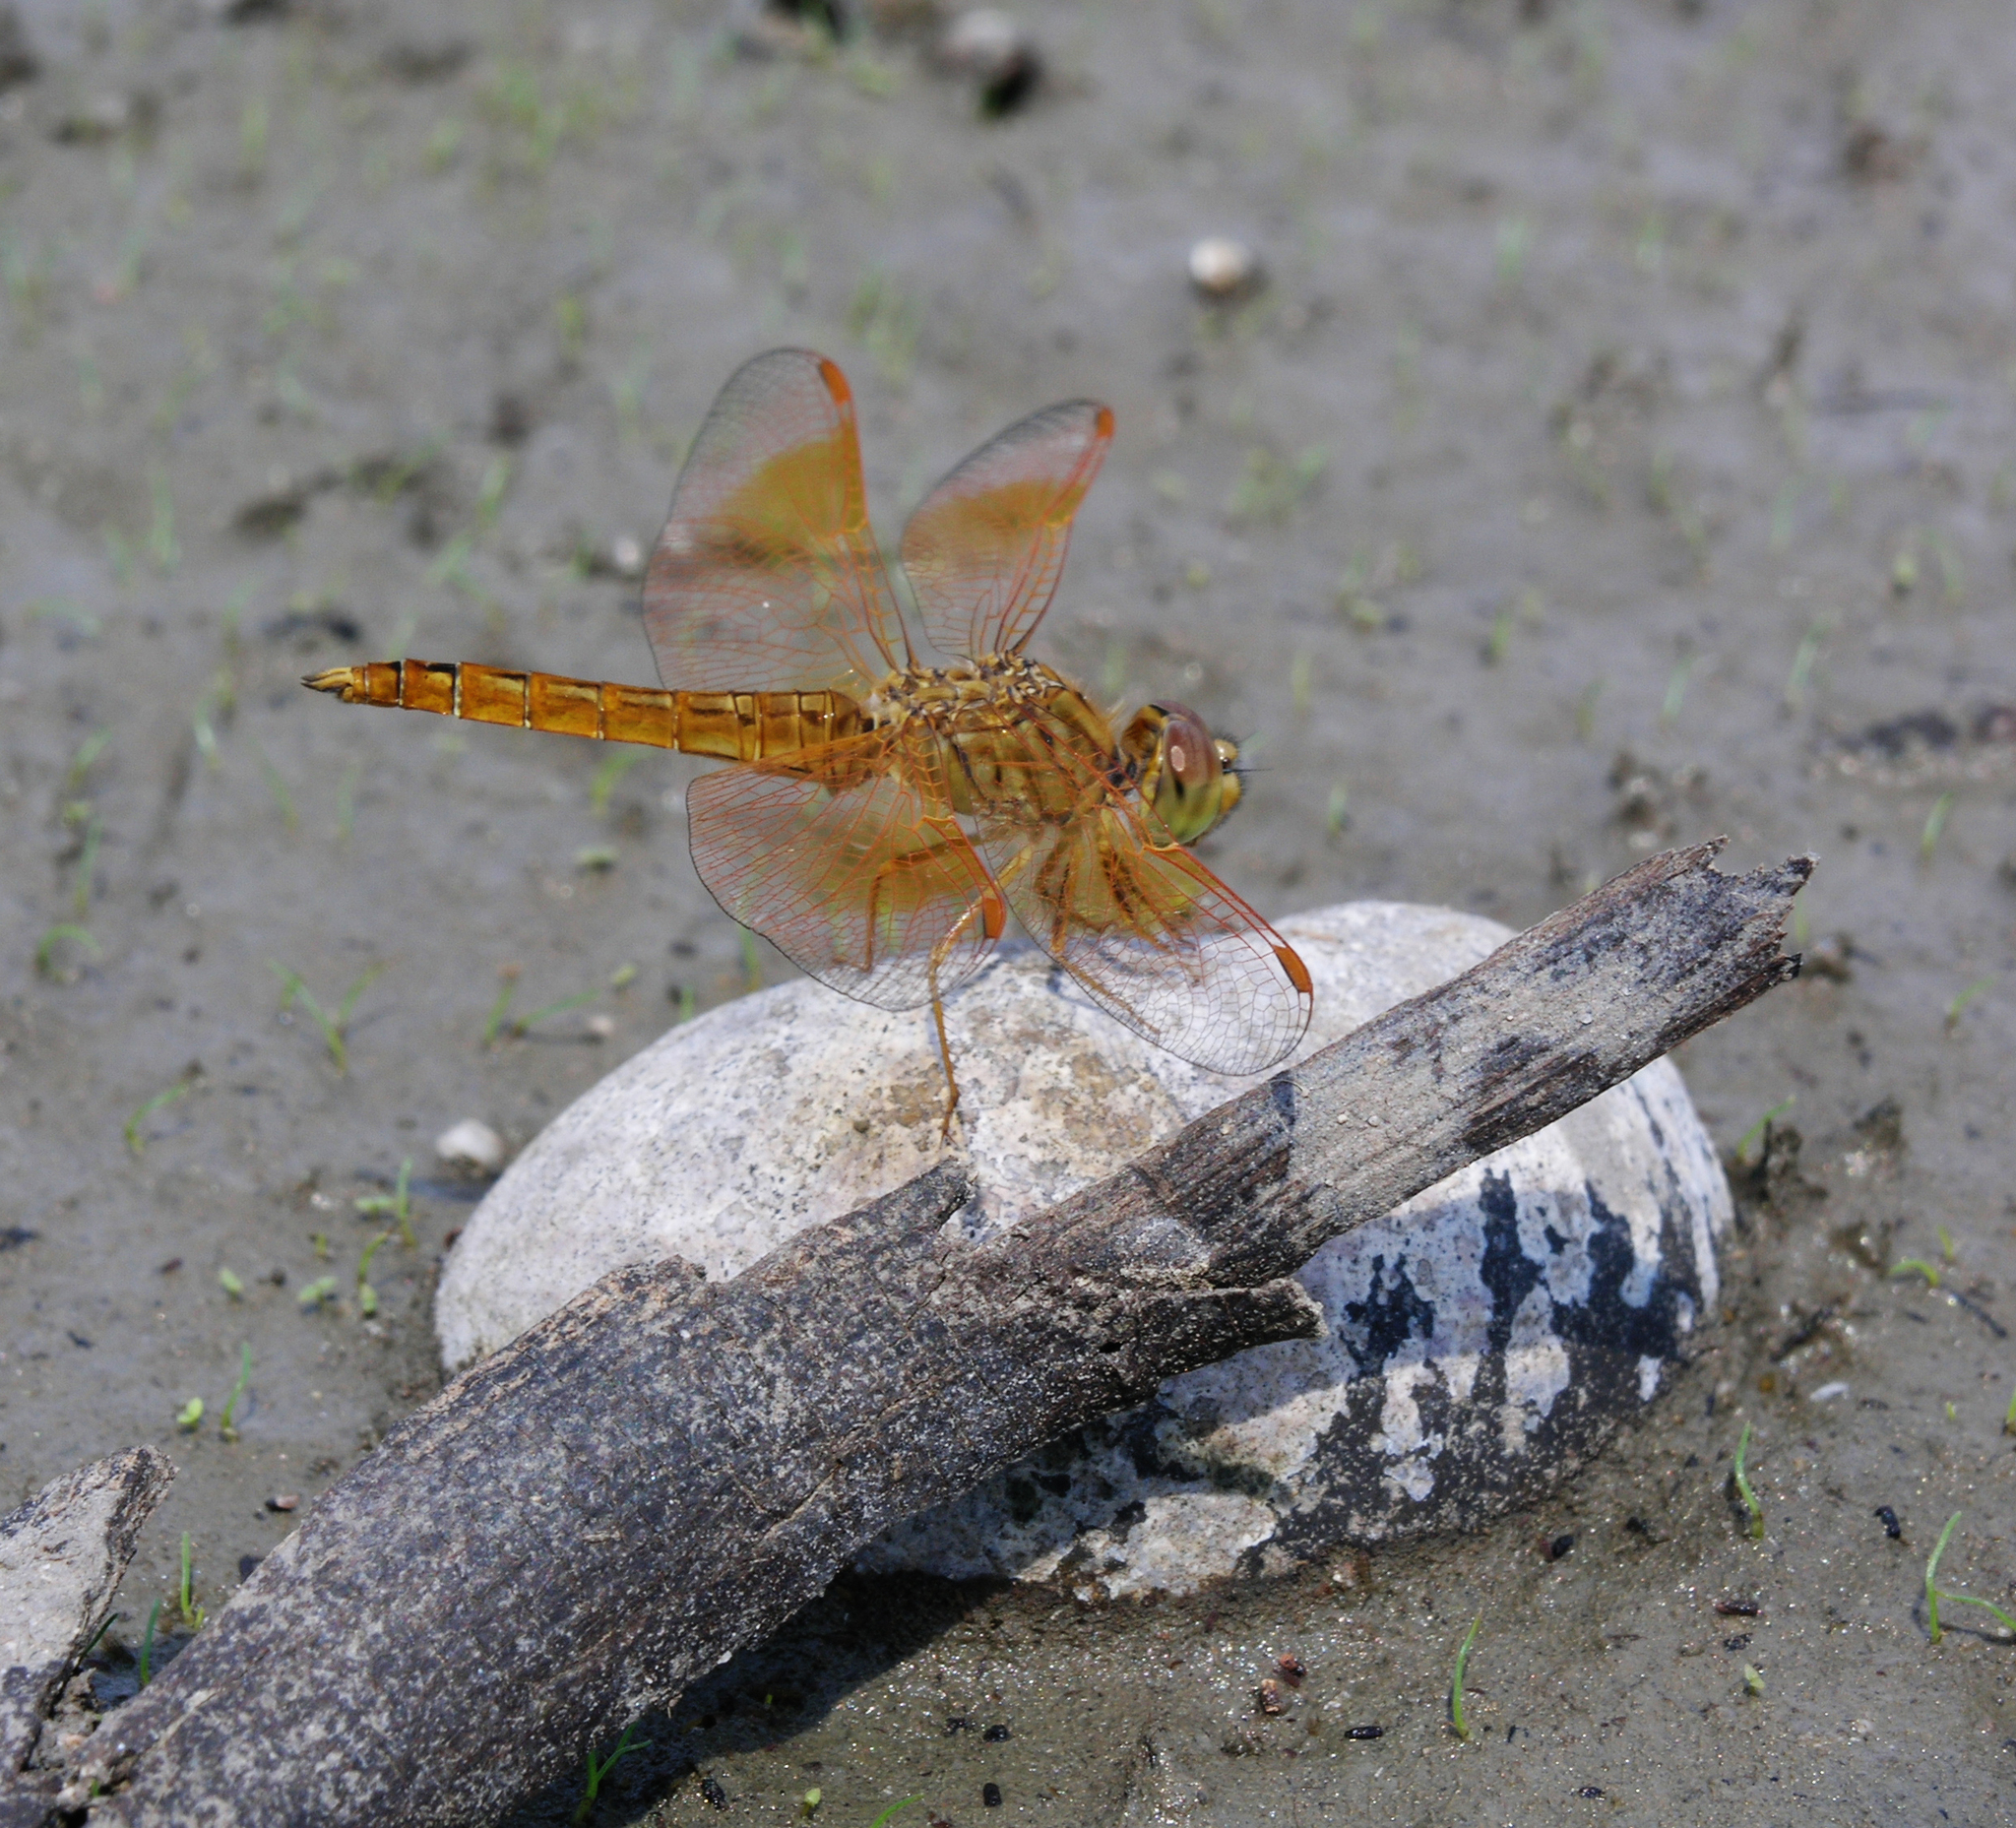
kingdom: Animalia
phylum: Arthropoda
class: Insecta
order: Odonata
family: Libellulidae
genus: Brachythemis
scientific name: Brachythemis contaminata
